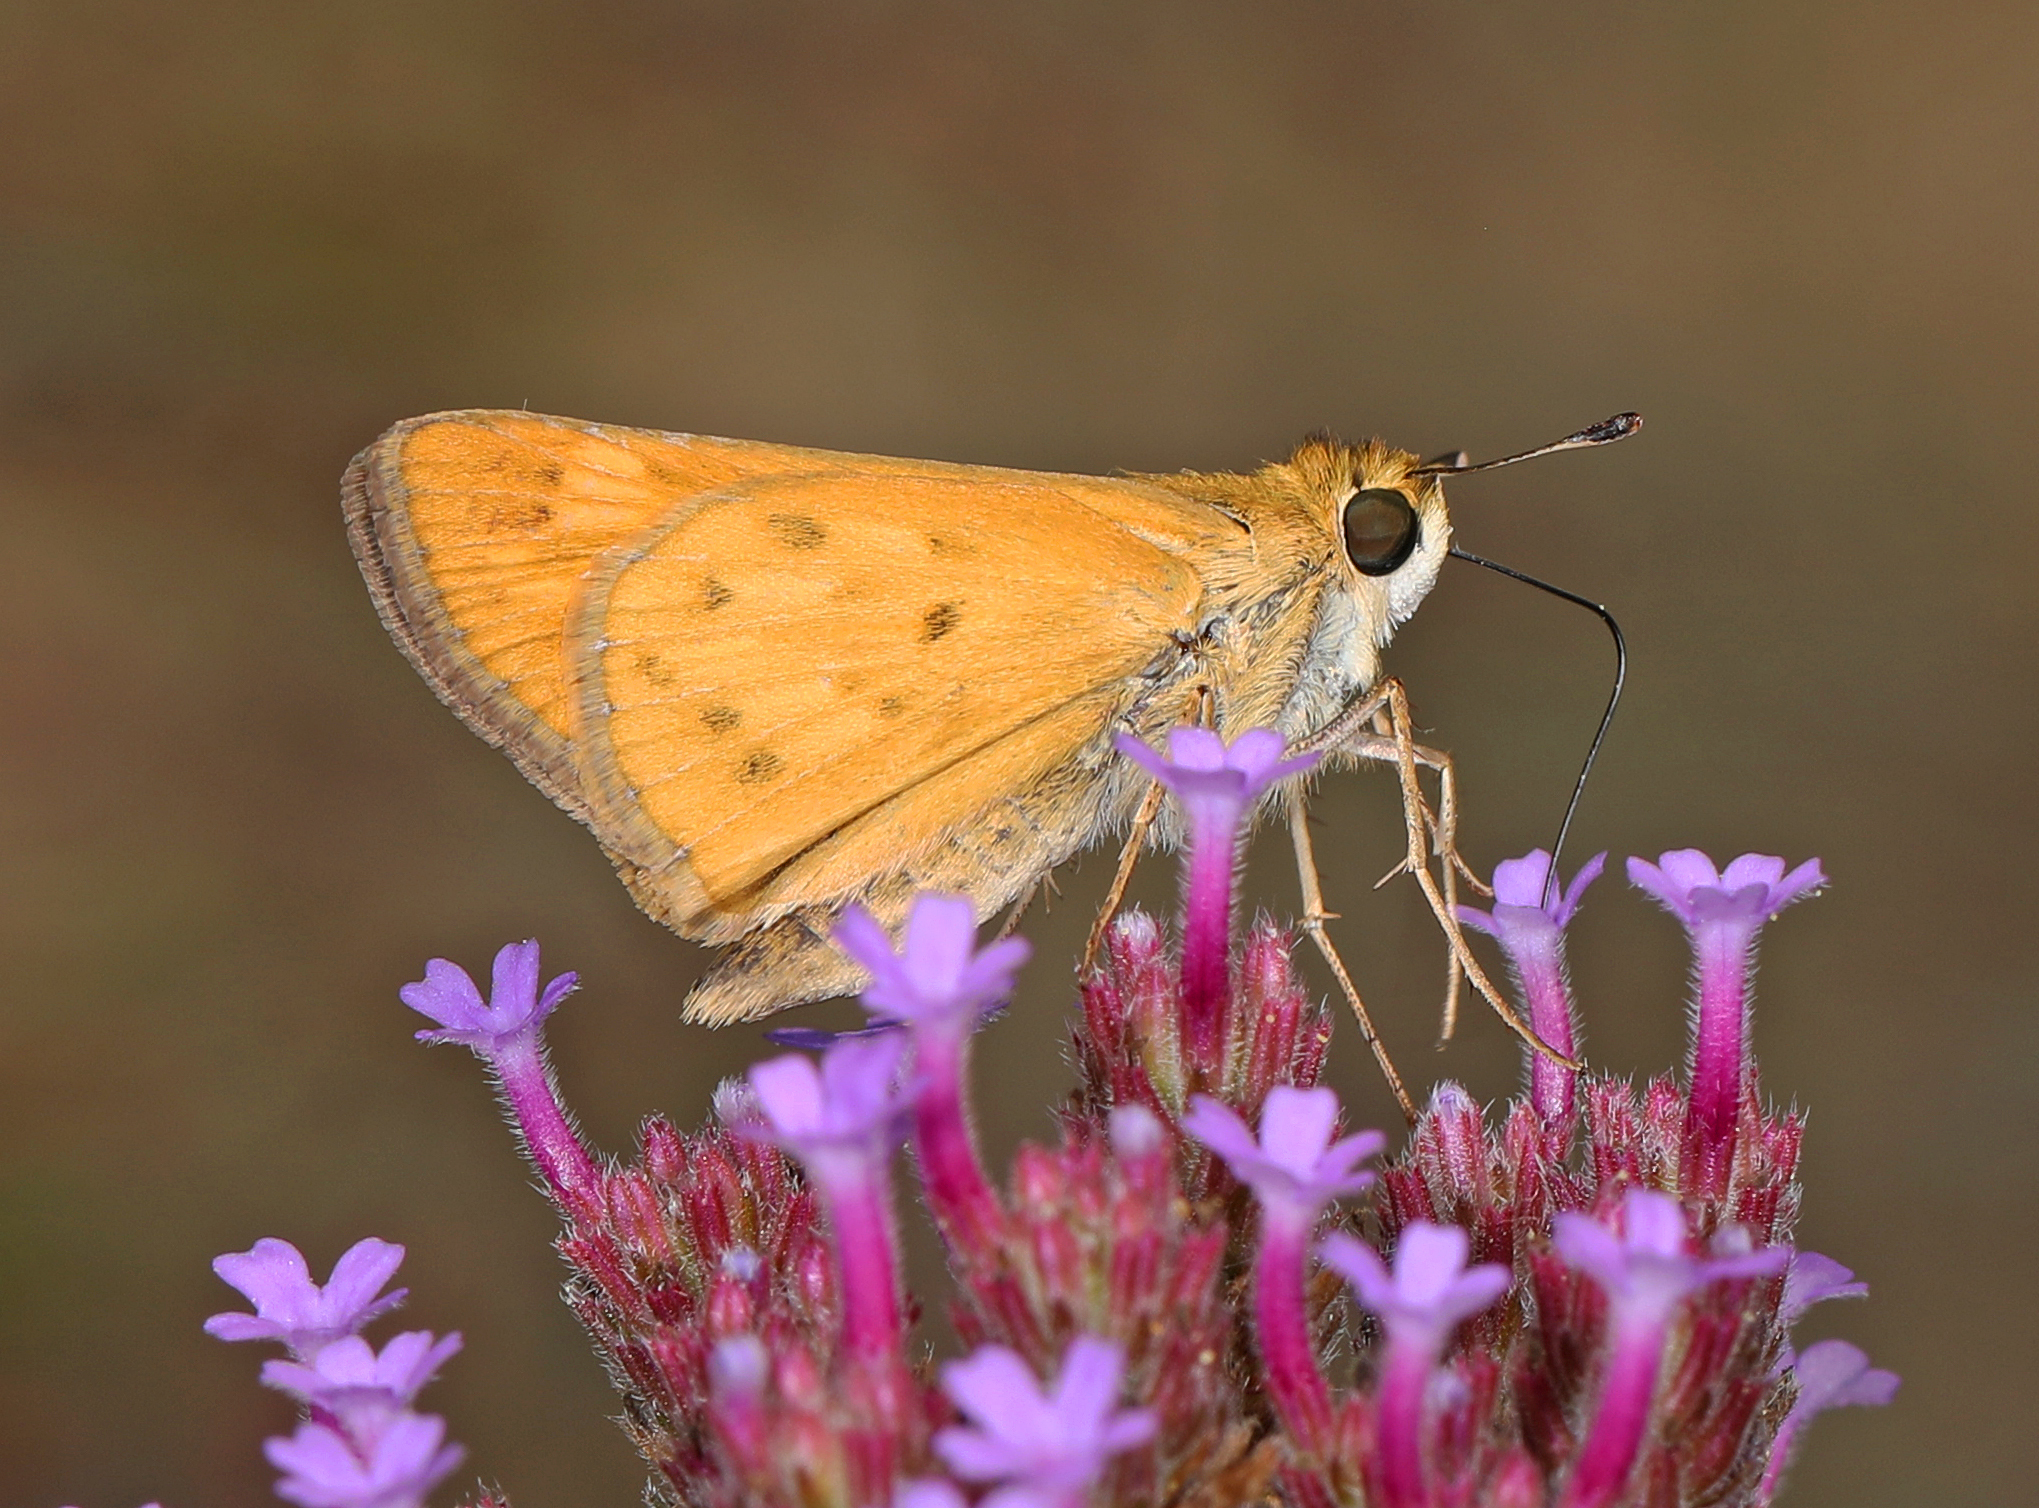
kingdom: Animalia
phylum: Arthropoda
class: Insecta
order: Lepidoptera
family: Hesperiidae
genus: Hylephila
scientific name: Hylephila phyleus
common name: Fiery skipper
